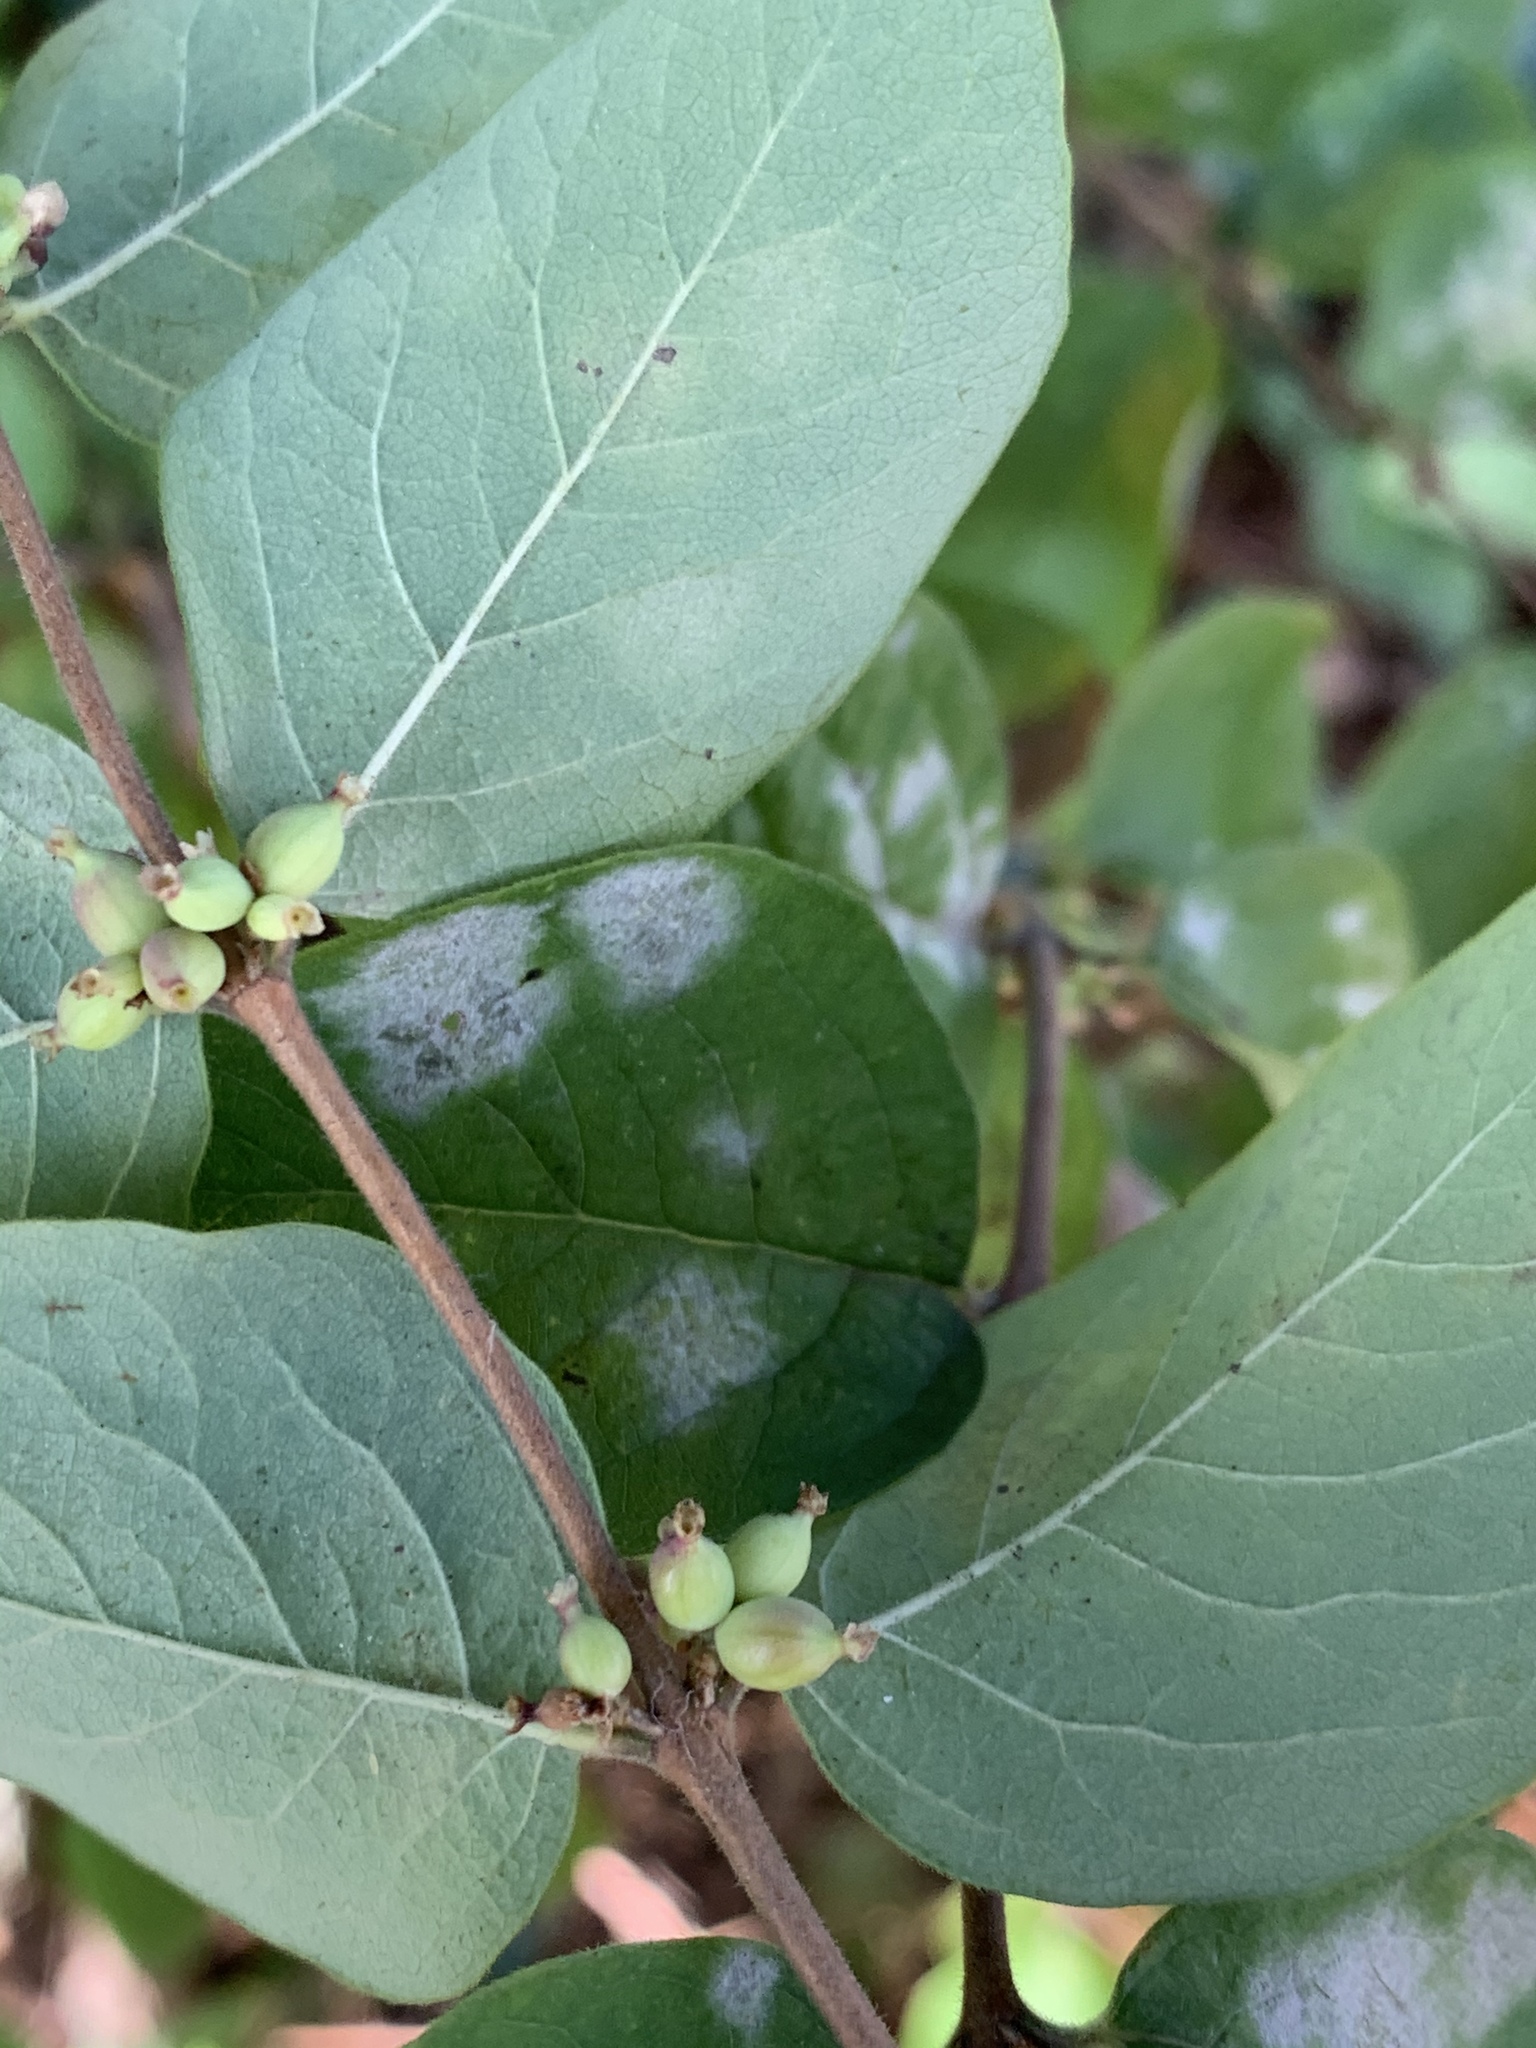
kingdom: Plantae
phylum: Tracheophyta
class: Magnoliopsida
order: Dipsacales
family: Caprifoliaceae
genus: Symphoricarpos
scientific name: Symphoricarpos orbiculatus
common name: Coralberry
